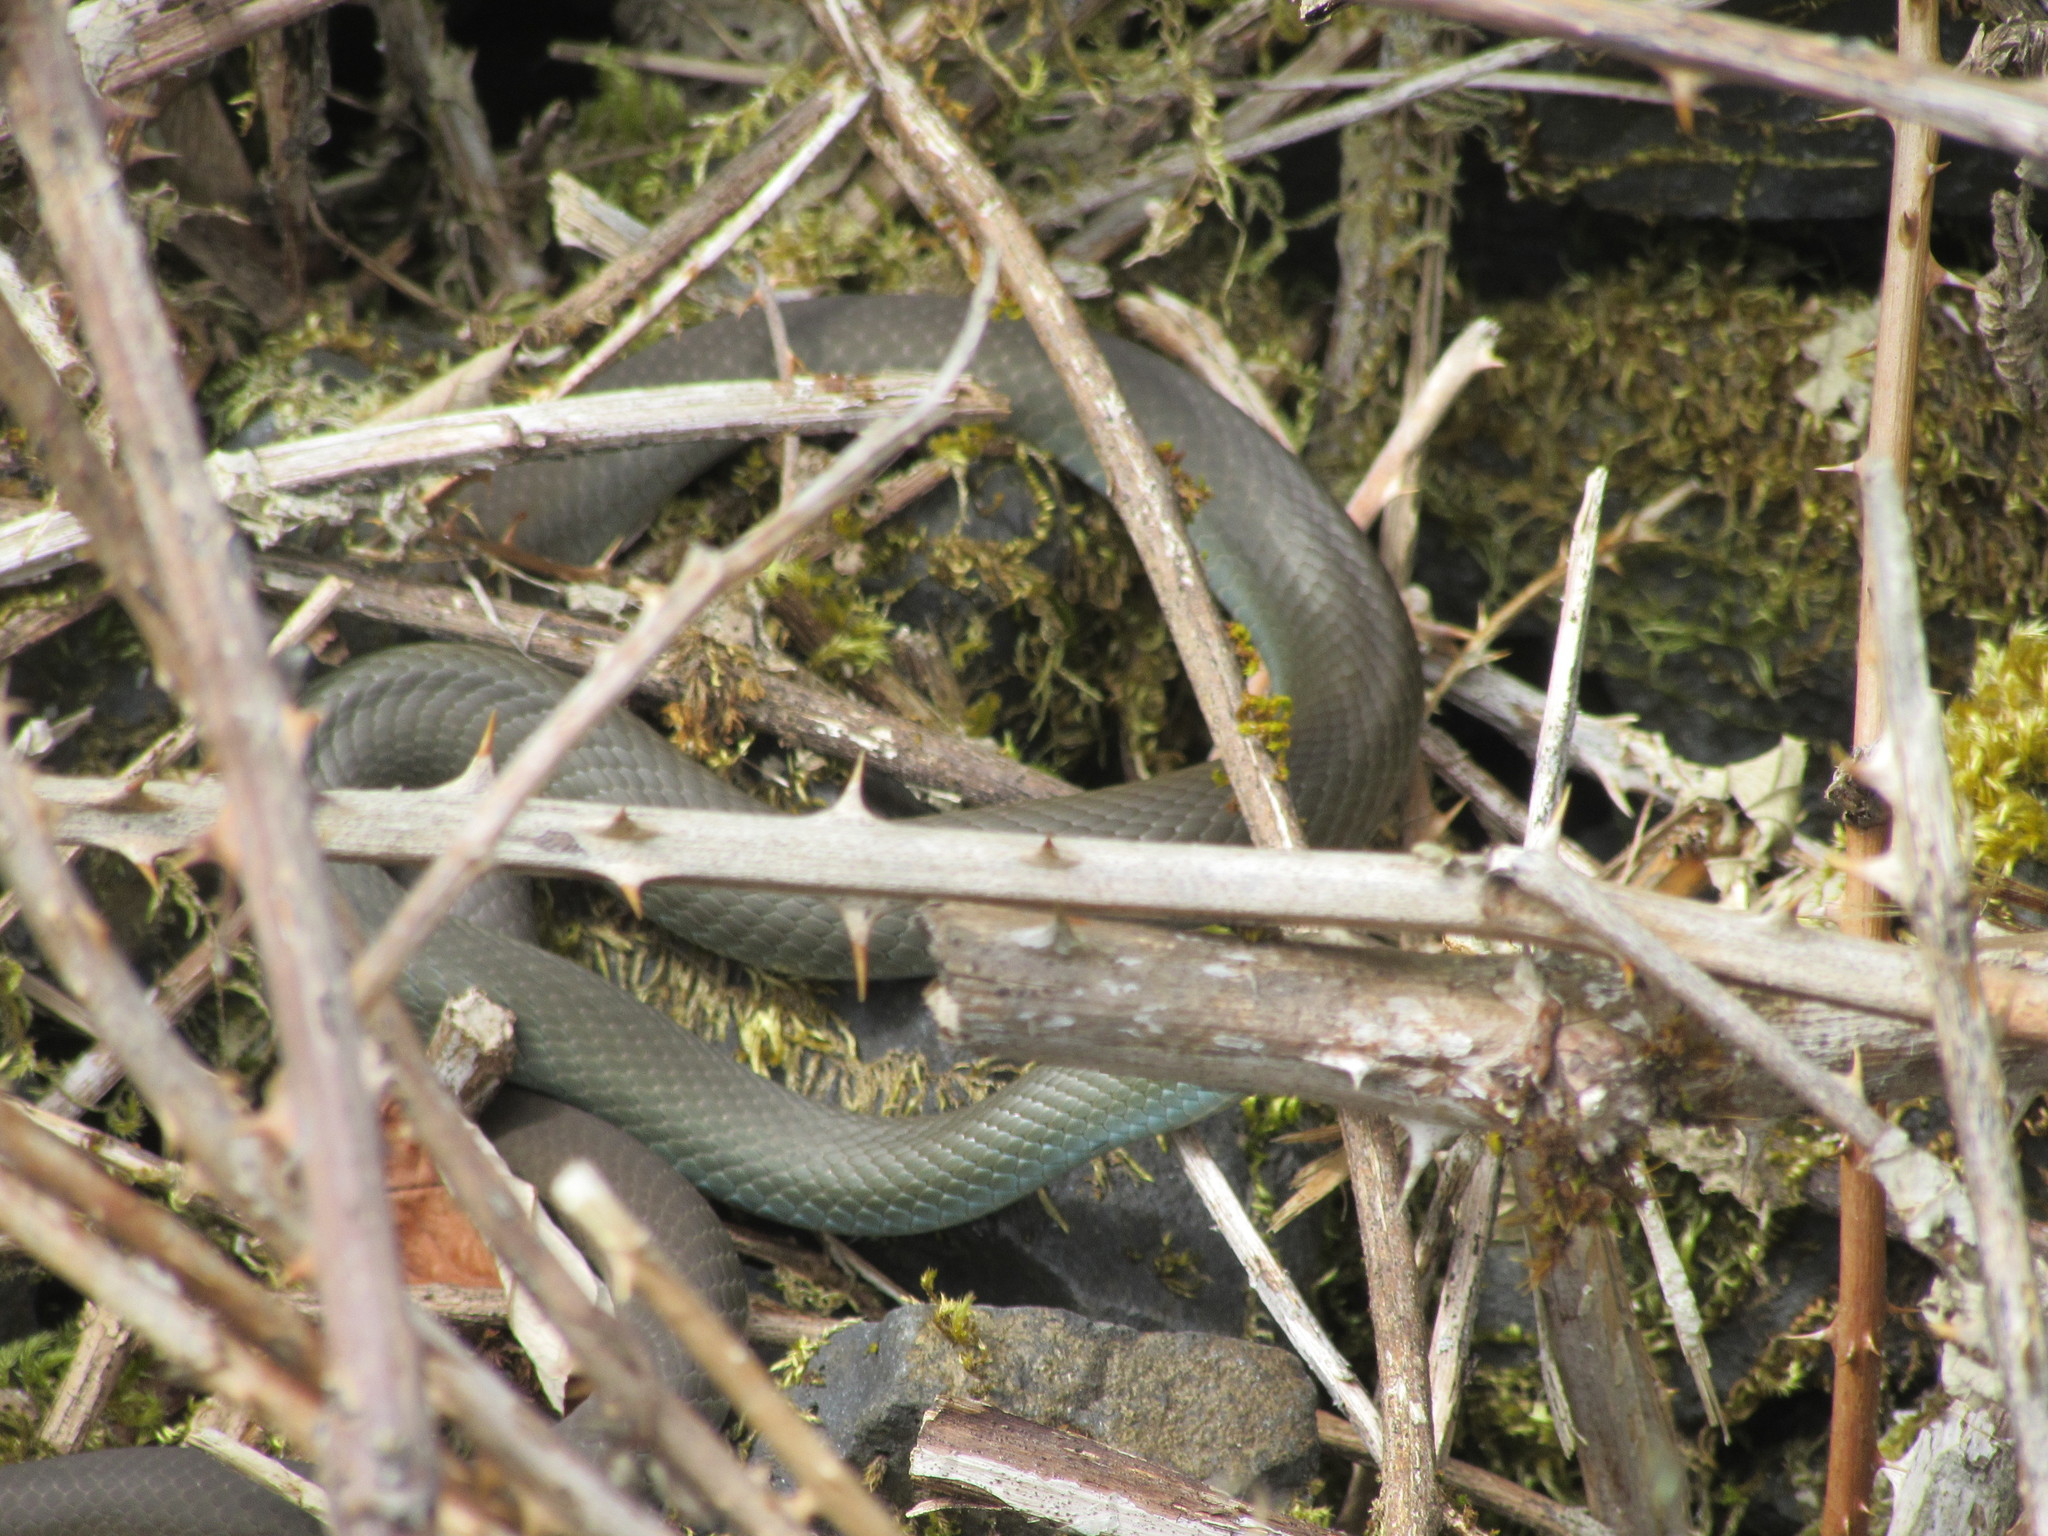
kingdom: Animalia
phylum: Chordata
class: Squamata
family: Colubridae
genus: Coluber
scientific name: Coluber constrictor
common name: Eastern racer
